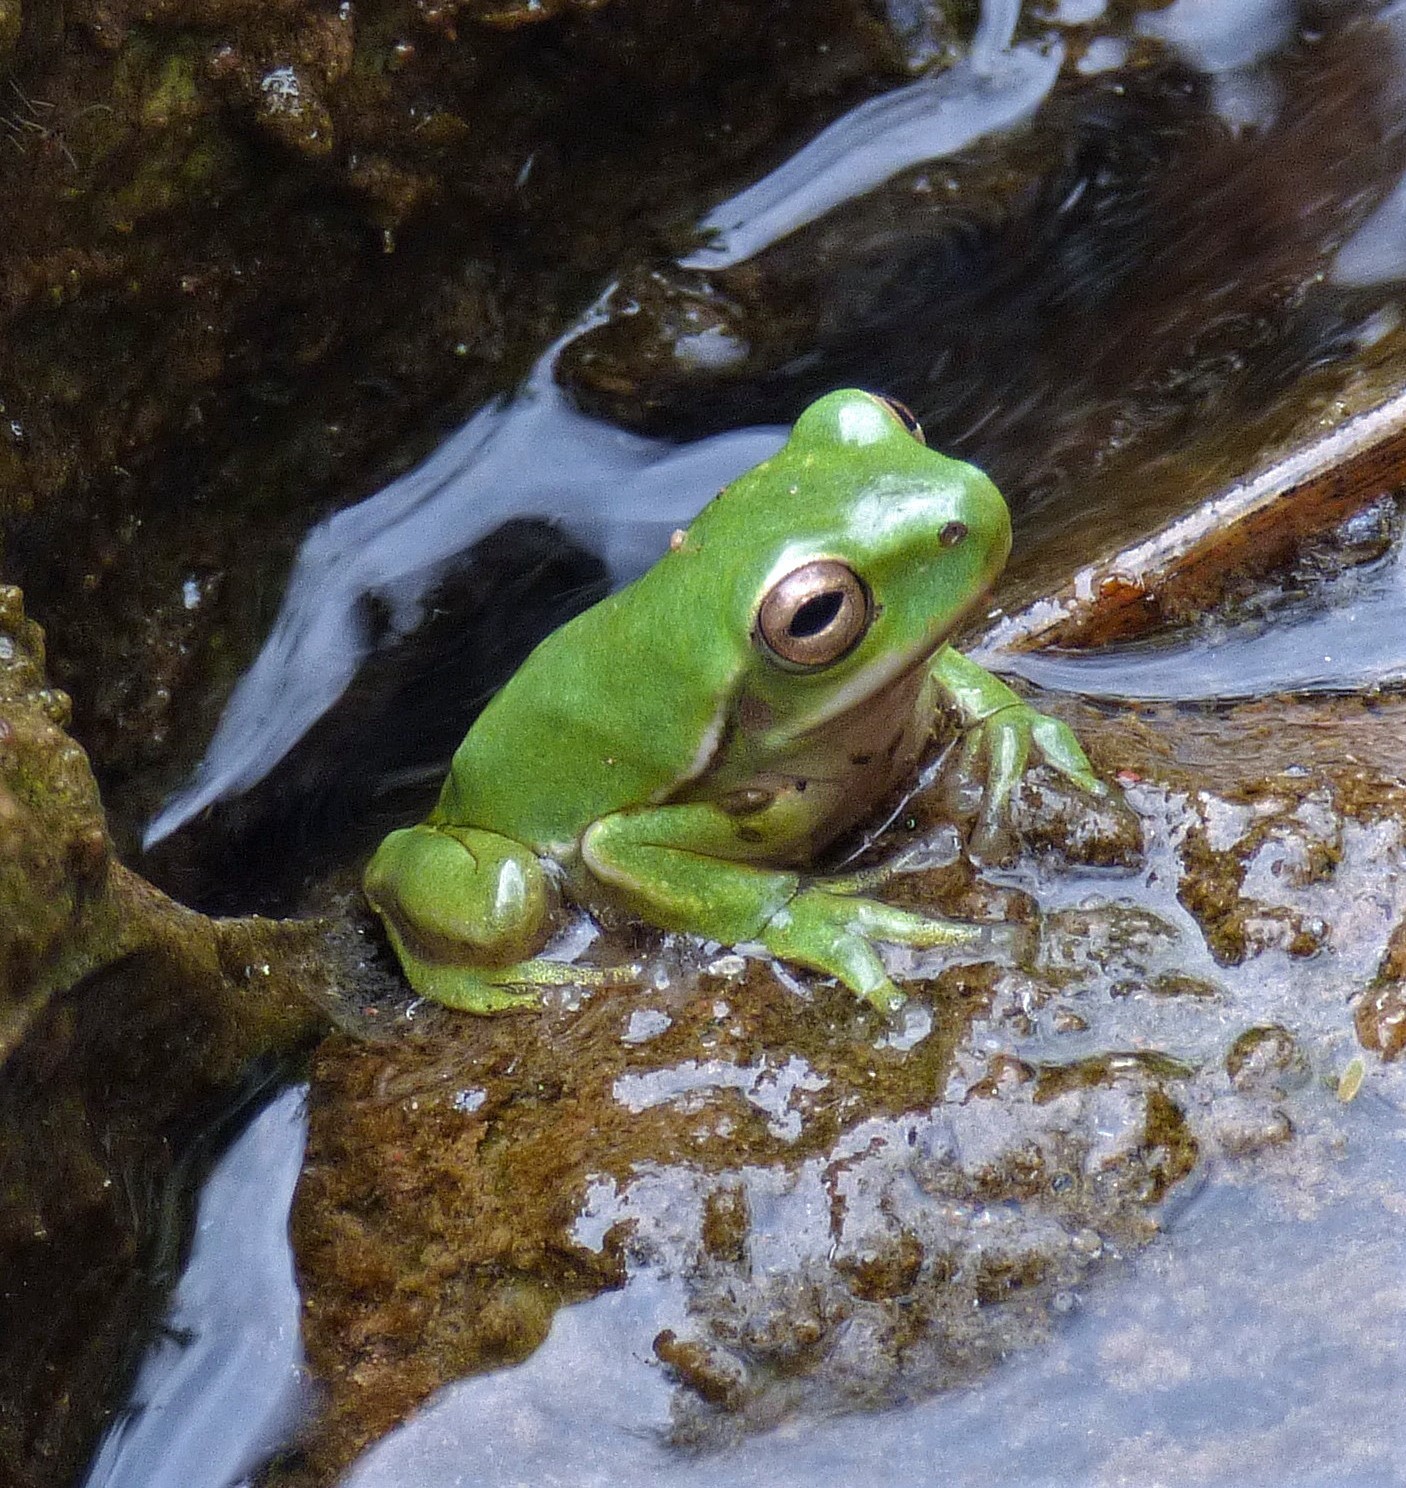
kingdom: Animalia
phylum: Chordata
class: Amphibia
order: Anura
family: Hylidae
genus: Boana
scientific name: Boana riojana
